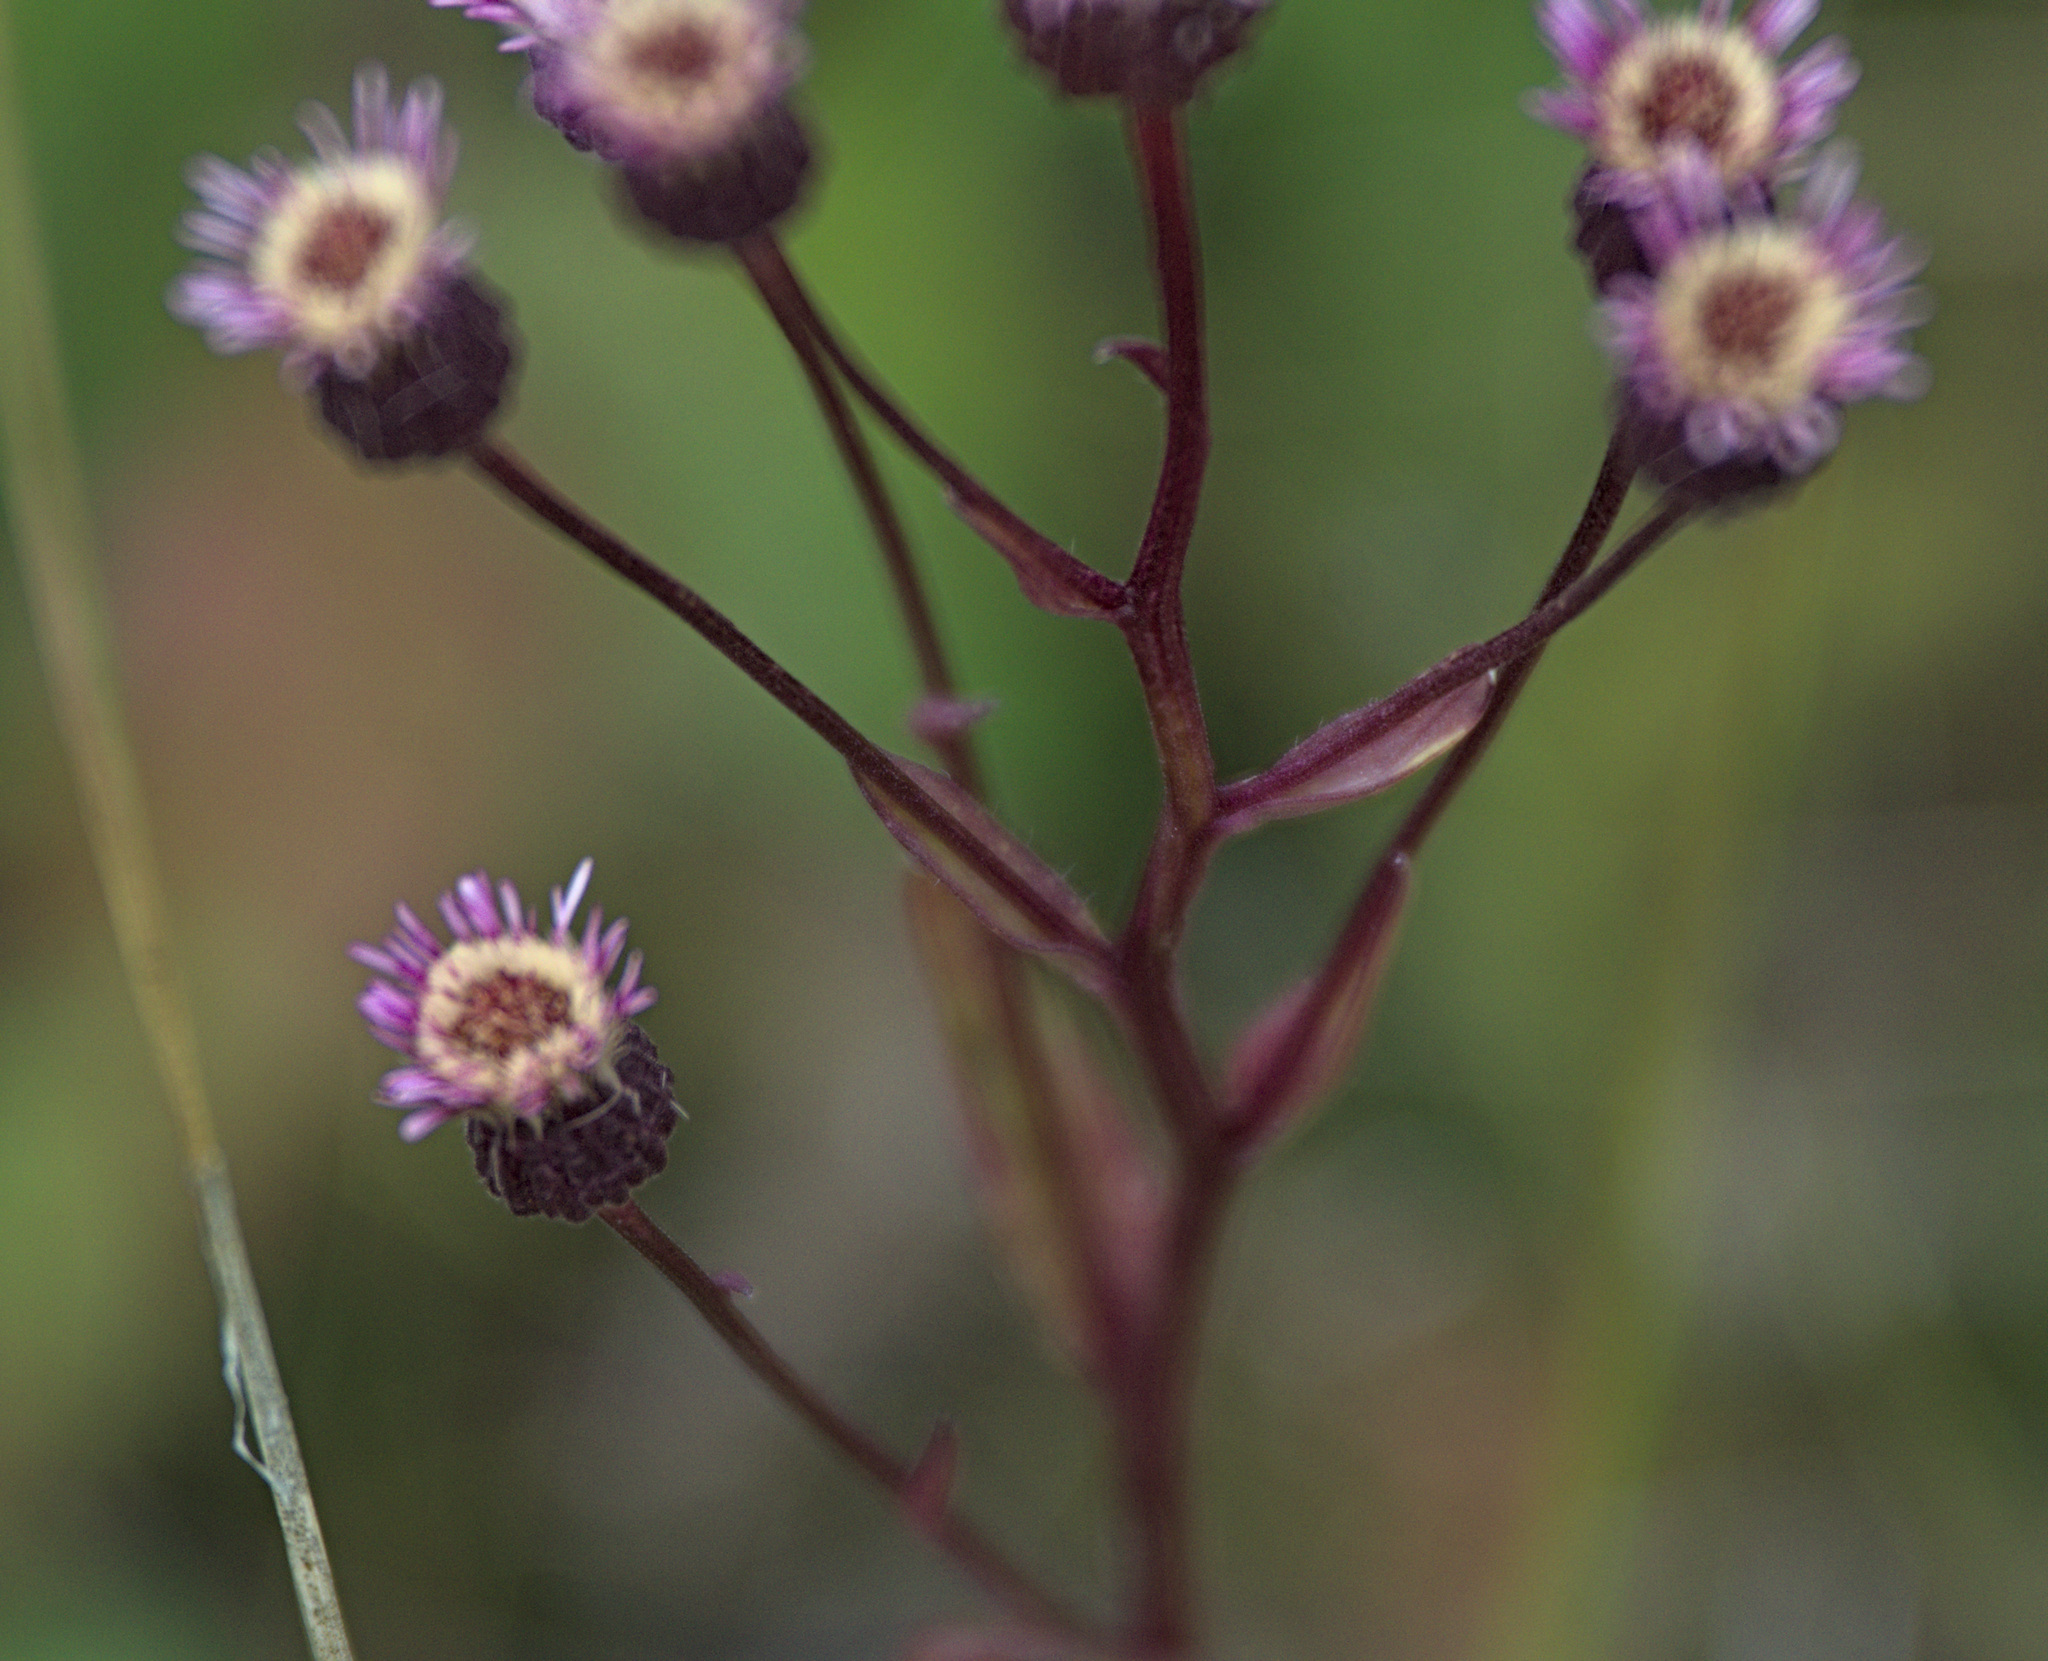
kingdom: Plantae
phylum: Tracheophyta
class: Magnoliopsida
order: Asterales
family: Asteraceae
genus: Erigeron
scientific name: Erigeron acris
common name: Blue fleabane
